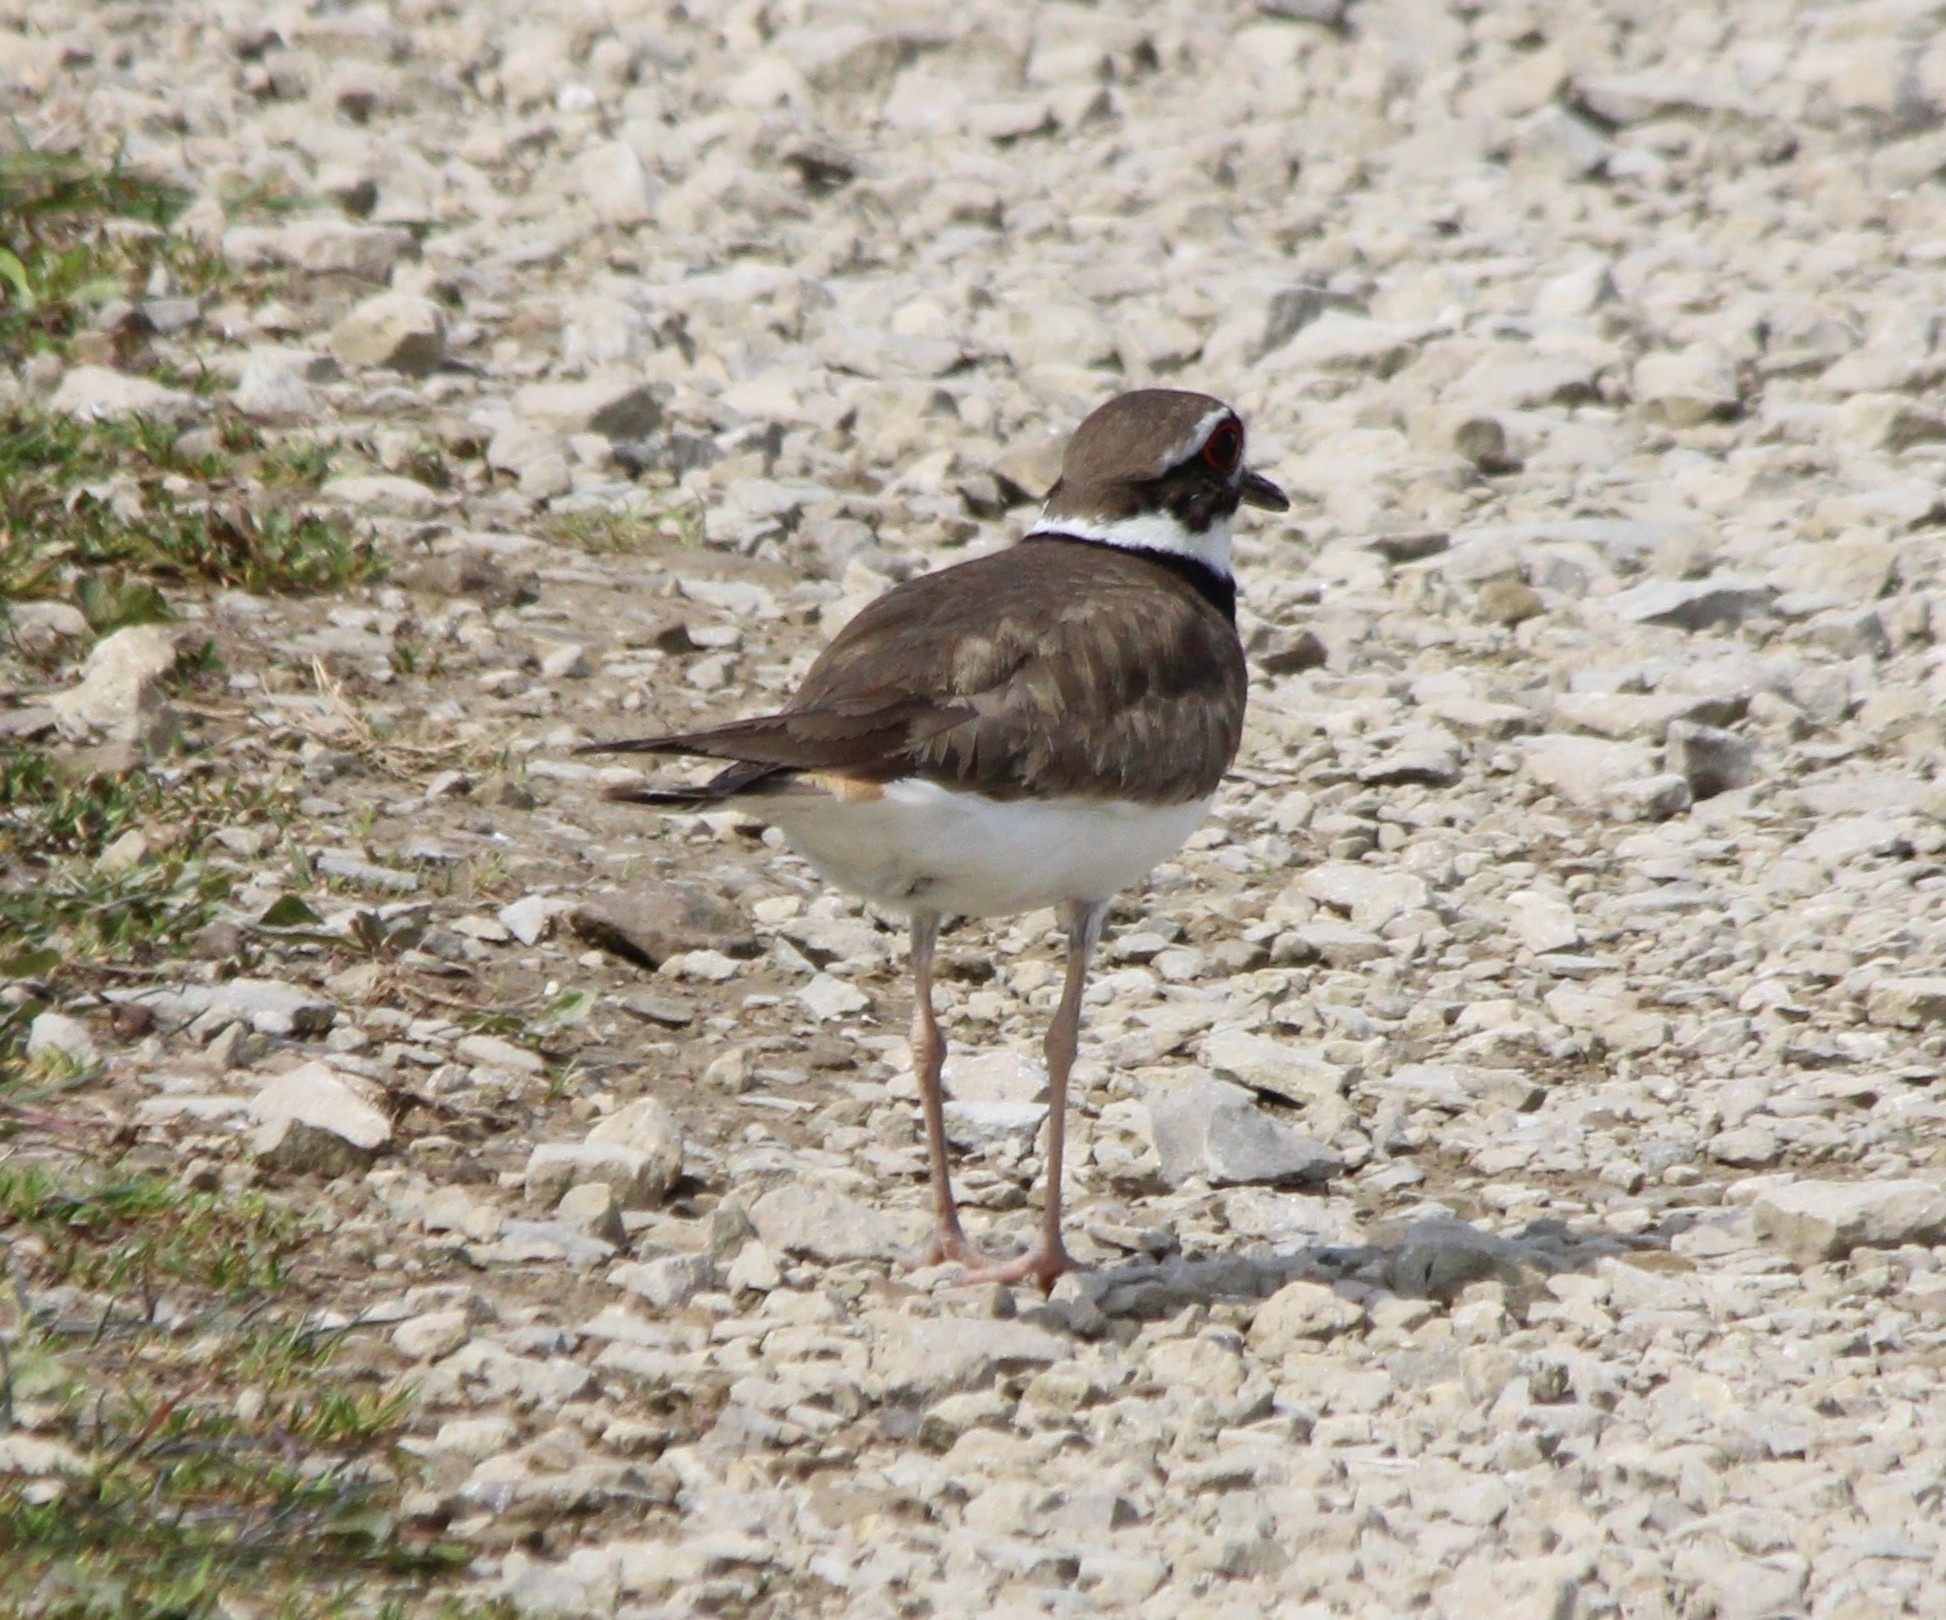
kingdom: Animalia
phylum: Chordata
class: Aves
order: Charadriiformes
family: Charadriidae
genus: Charadrius
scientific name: Charadrius vociferus
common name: Killdeer
